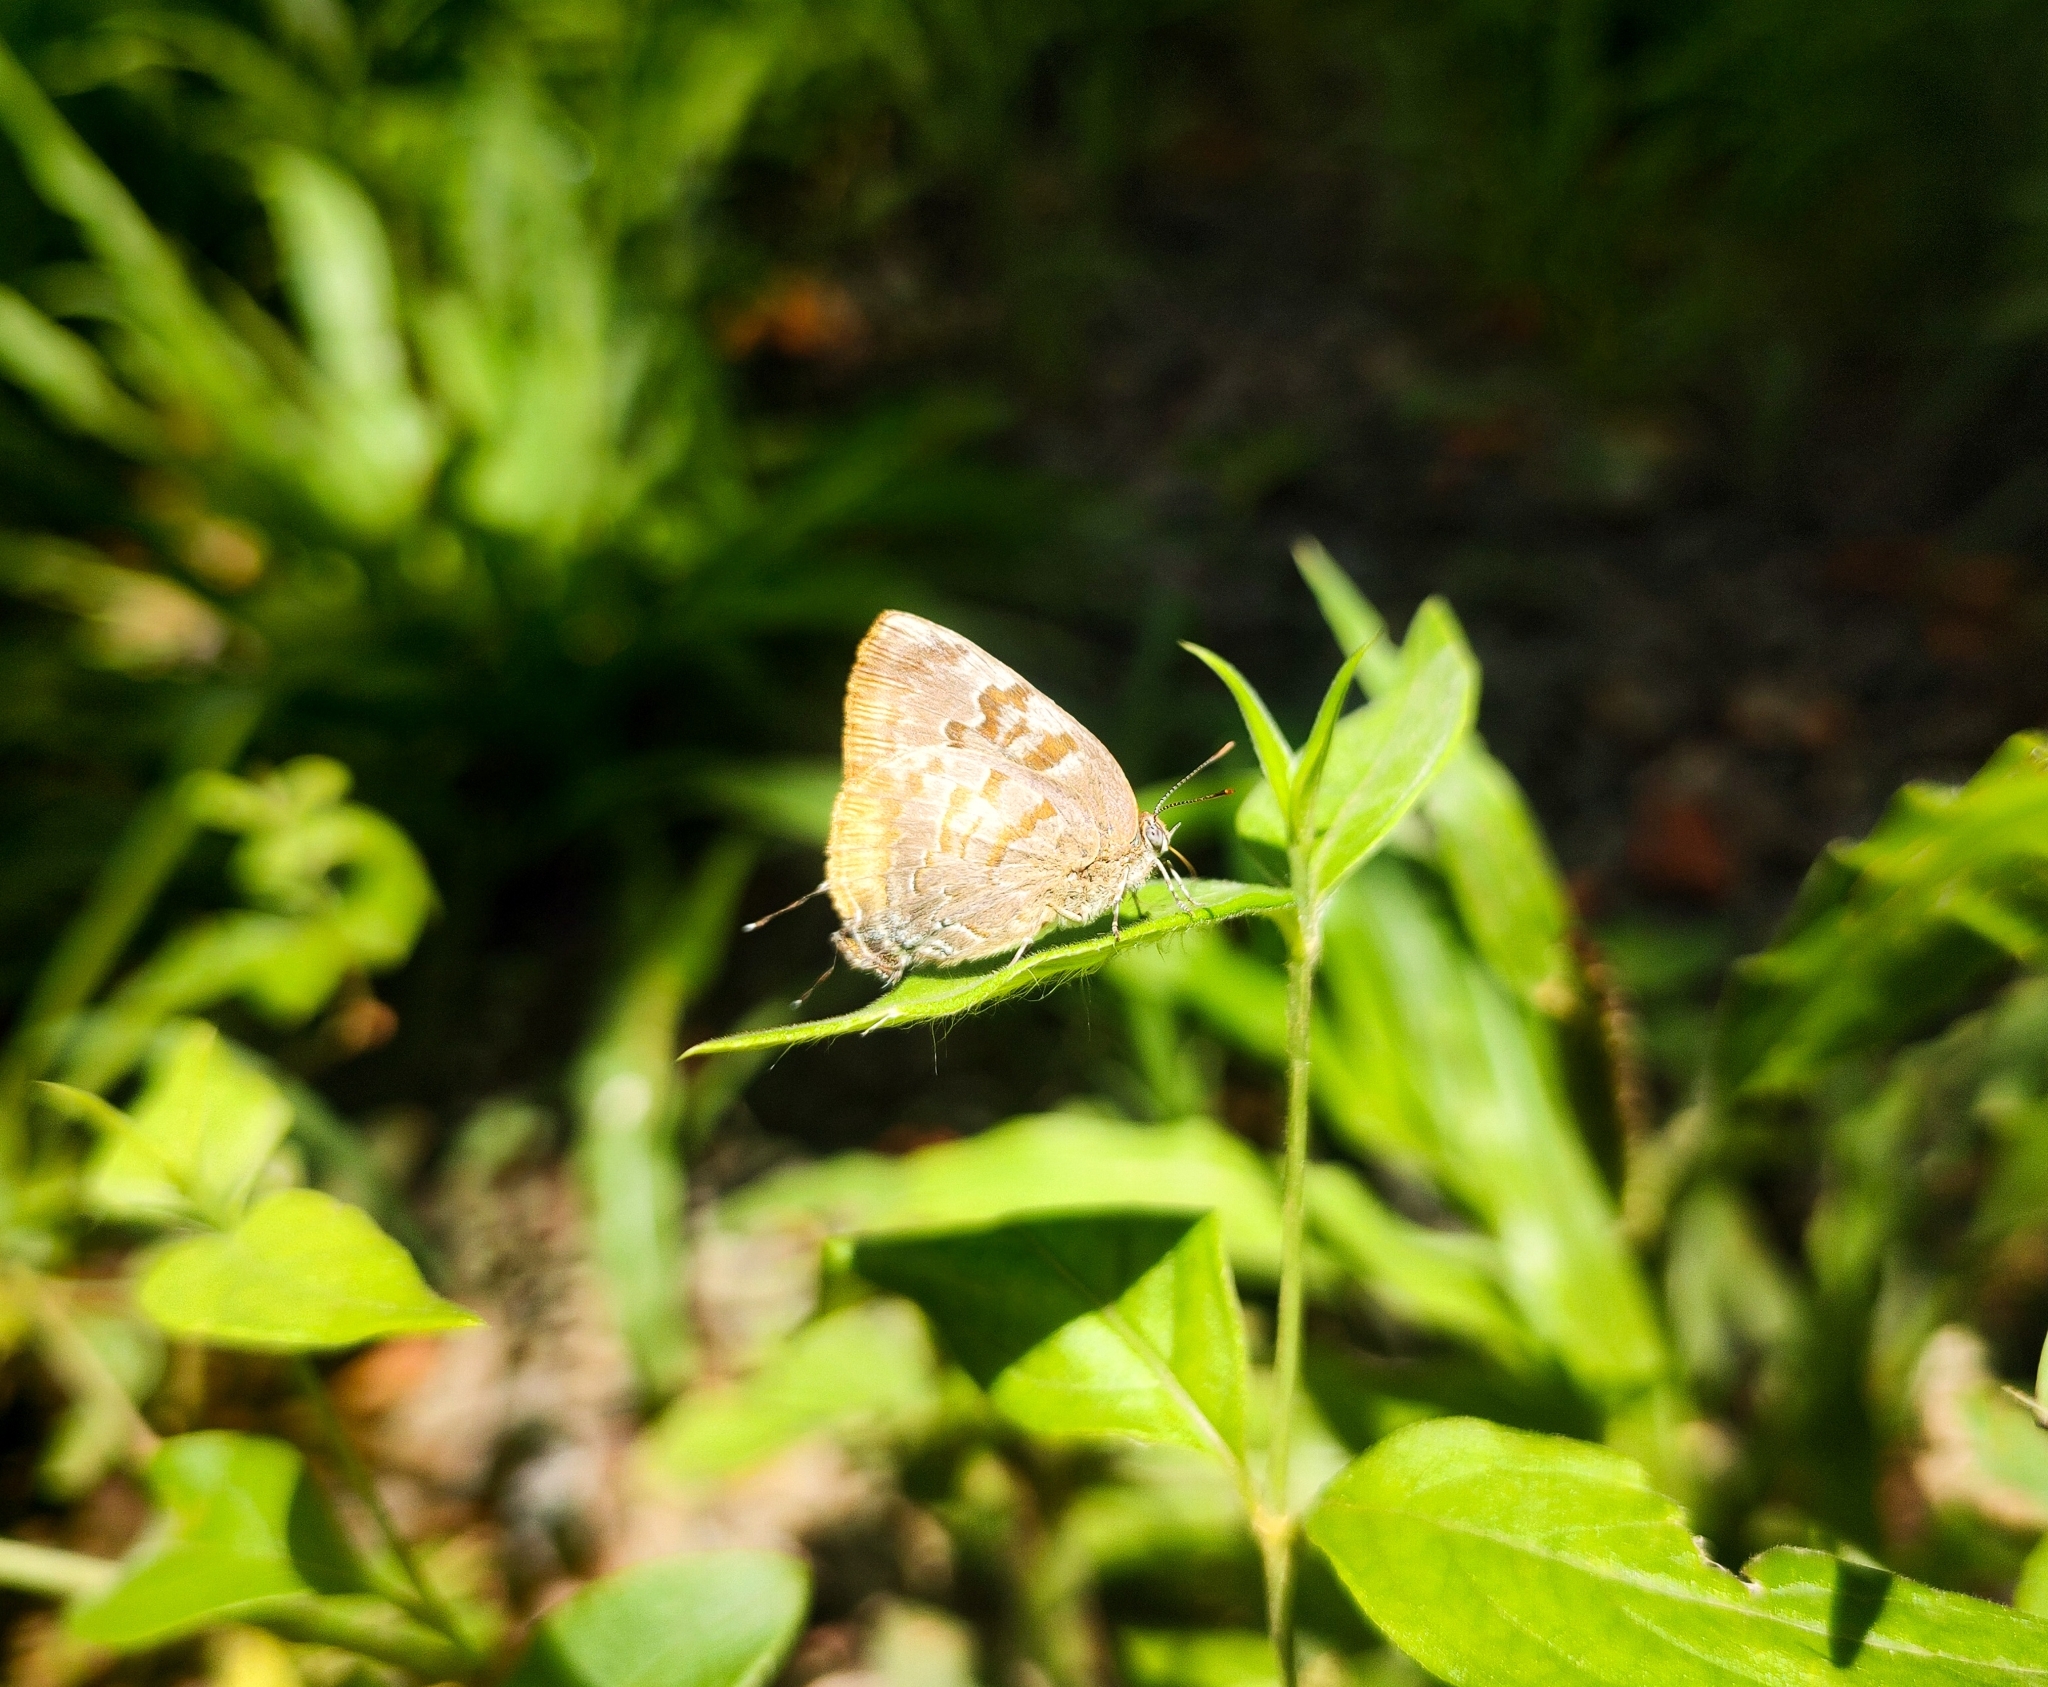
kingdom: Animalia
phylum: Arthropoda
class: Insecta
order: Lepidoptera
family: Lycaenidae
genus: Rekoa
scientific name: Rekoa palegon
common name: Gold-bordered hairstreak
